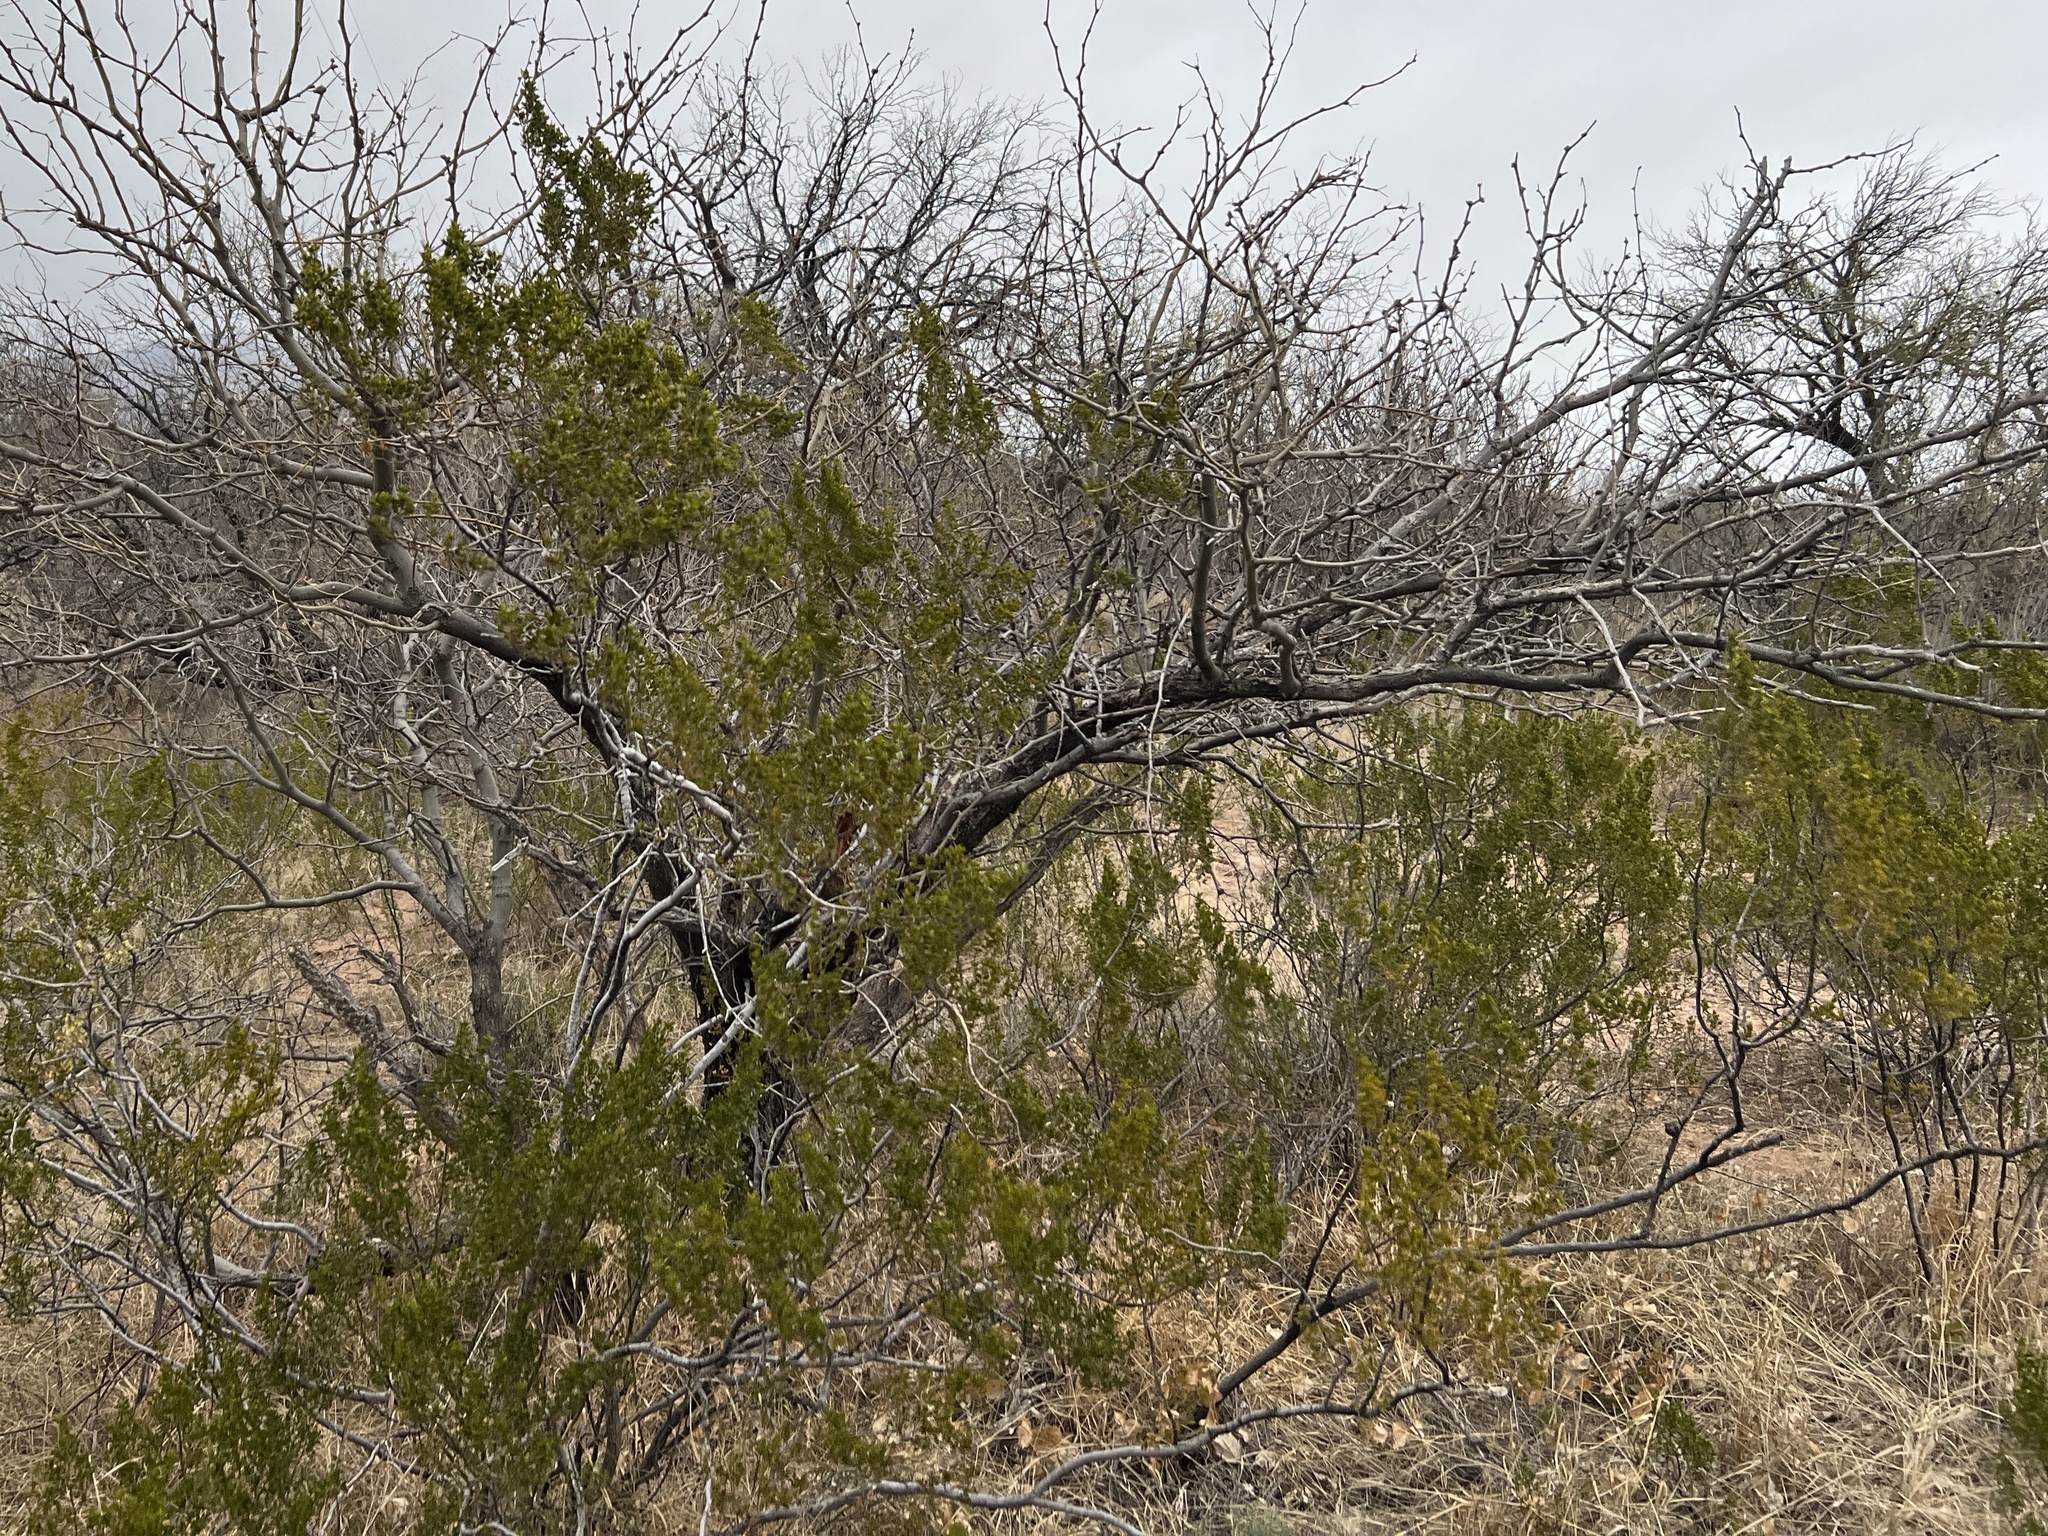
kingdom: Plantae
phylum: Tracheophyta
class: Magnoliopsida
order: Zygophyllales
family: Zygophyllaceae
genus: Larrea
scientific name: Larrea tridentata
